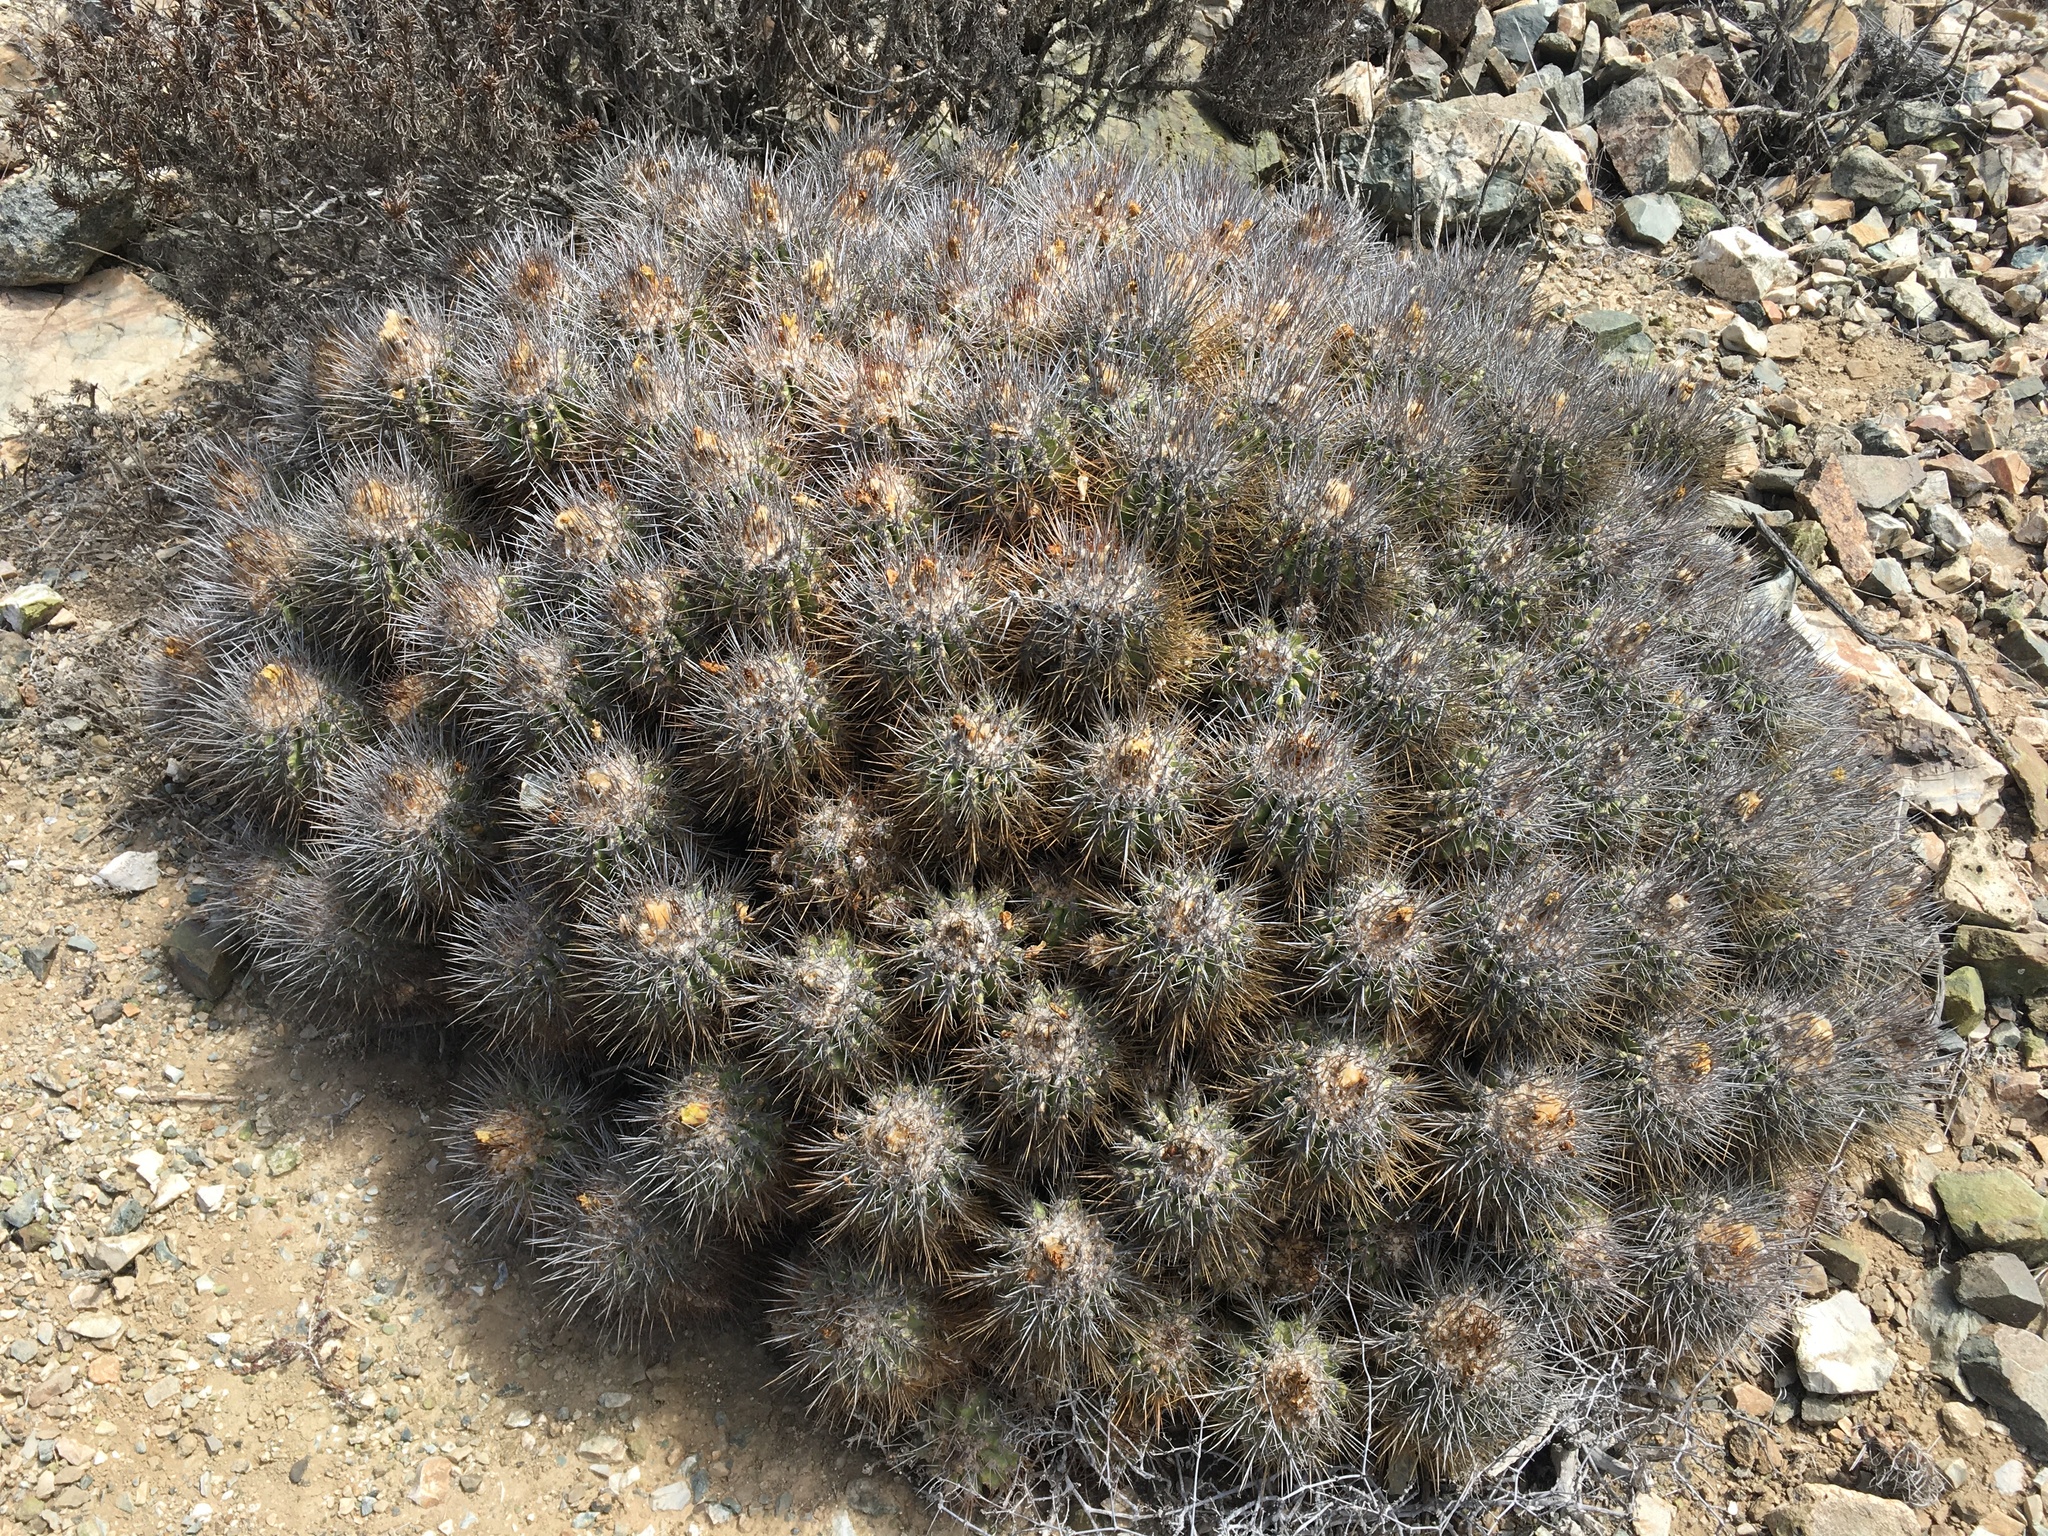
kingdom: Plantae
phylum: Tracheophyta
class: Magnoliopsida
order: Caryophyllales
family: Cactaceae
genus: Copiapoa
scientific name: Copiapoa coquimbana
